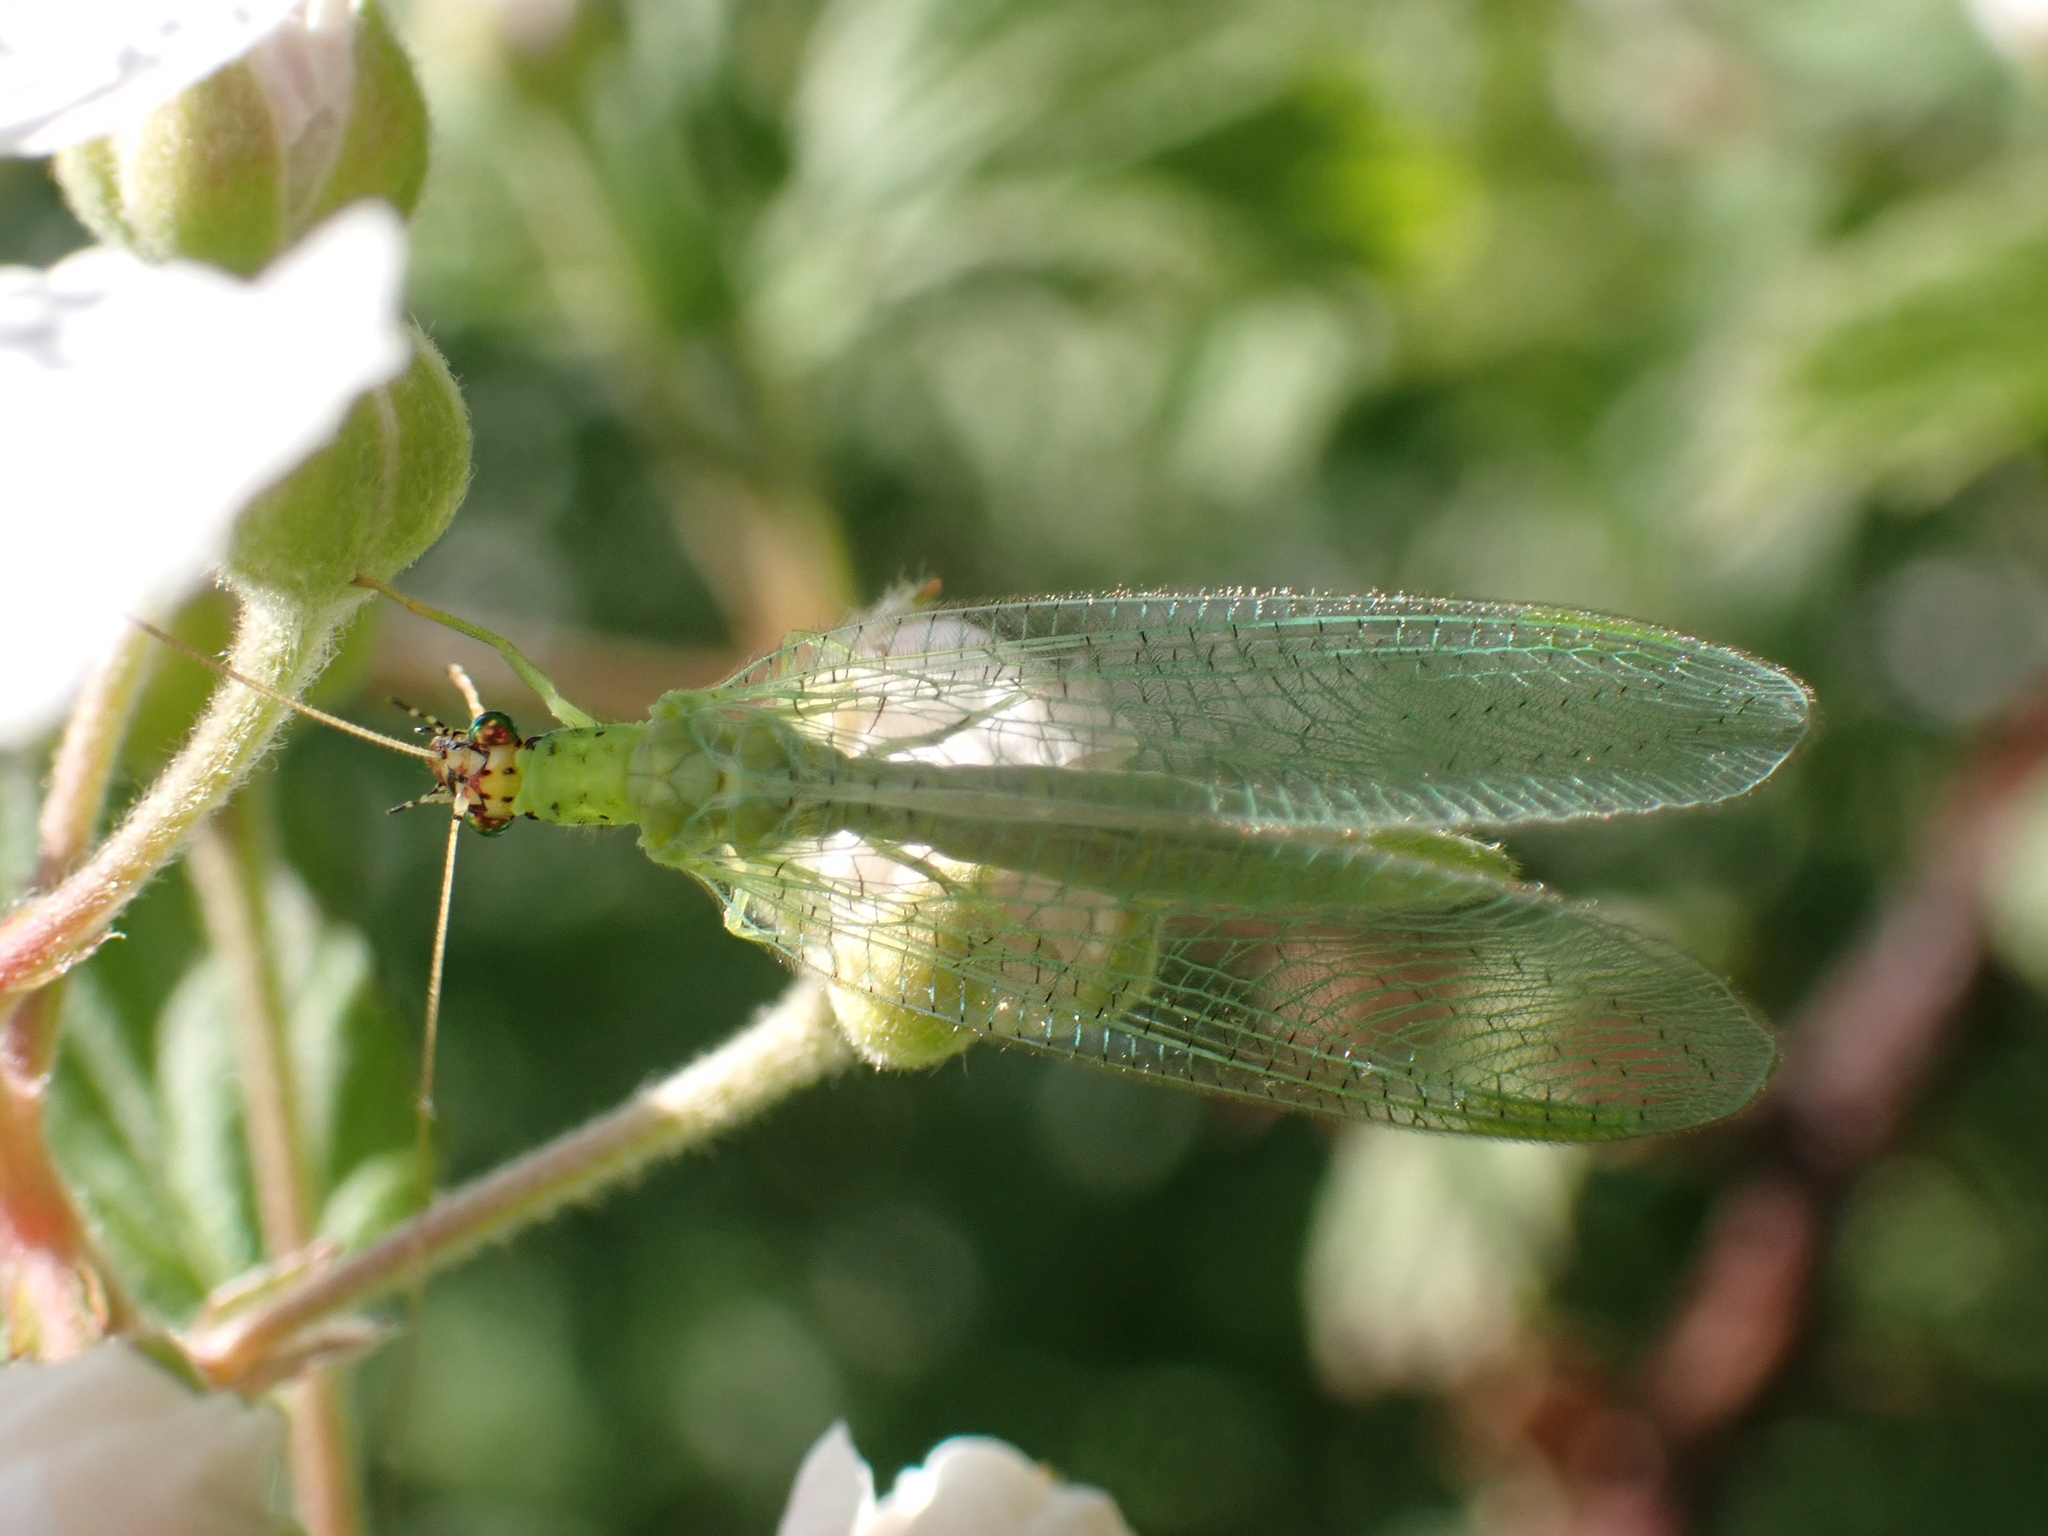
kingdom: Animalia
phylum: Arthropoda
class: Insecta
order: Neuroptera
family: Chrysopidae
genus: Chrysopa
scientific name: Chrysopa oculata
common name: Golden-eyed lacewing
